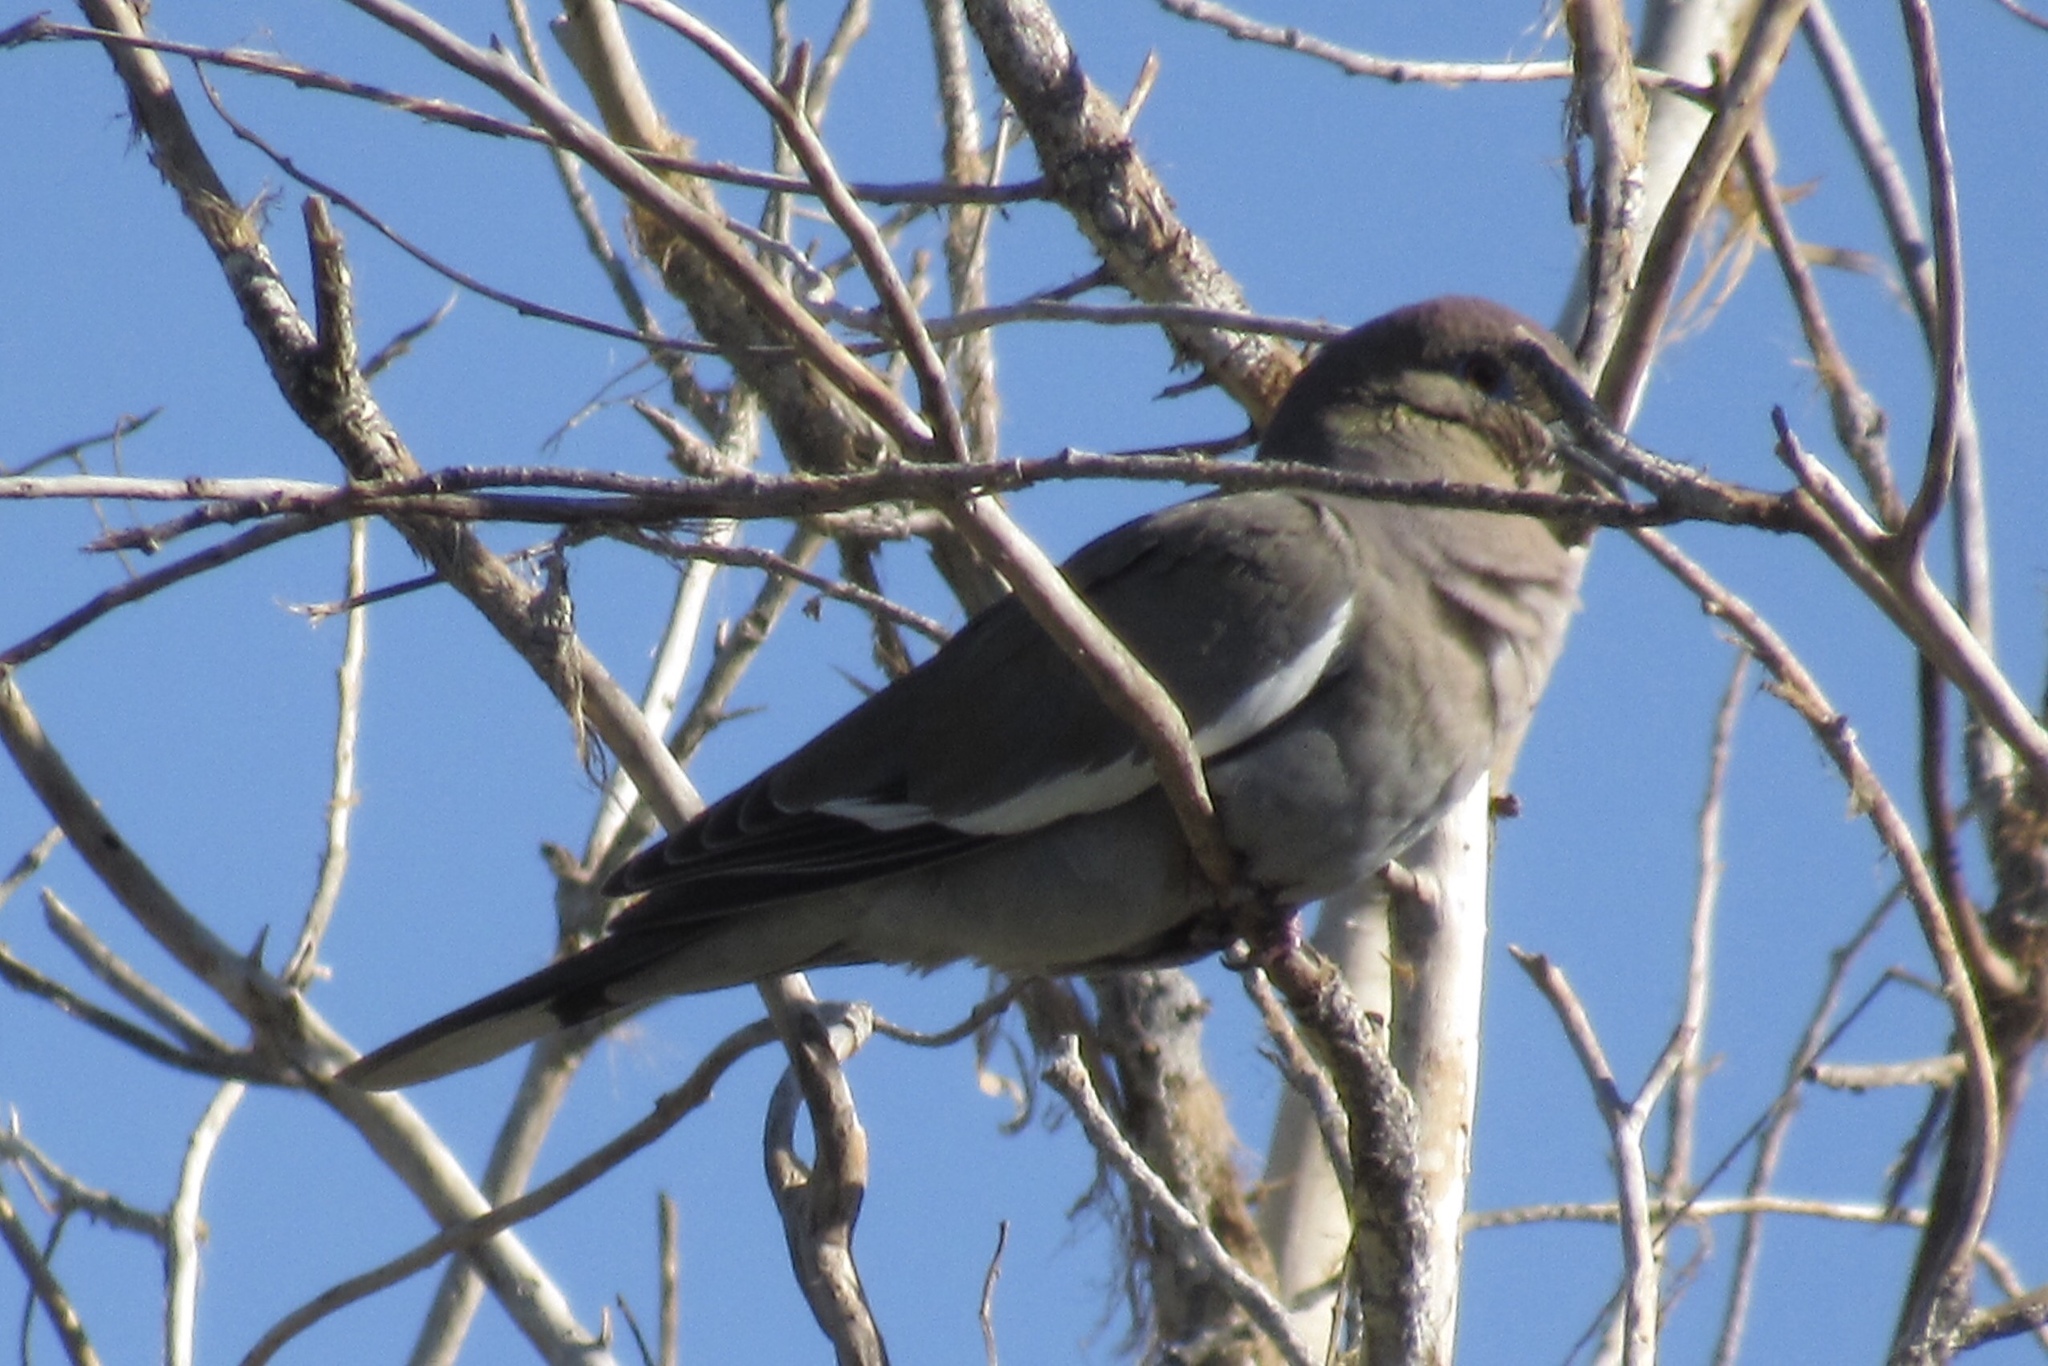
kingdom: Animalia
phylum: Chordata
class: Aves
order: Columbiformes
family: Columbidae
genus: Zenaida
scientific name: Zenaida asiatica
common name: White-winged dove
